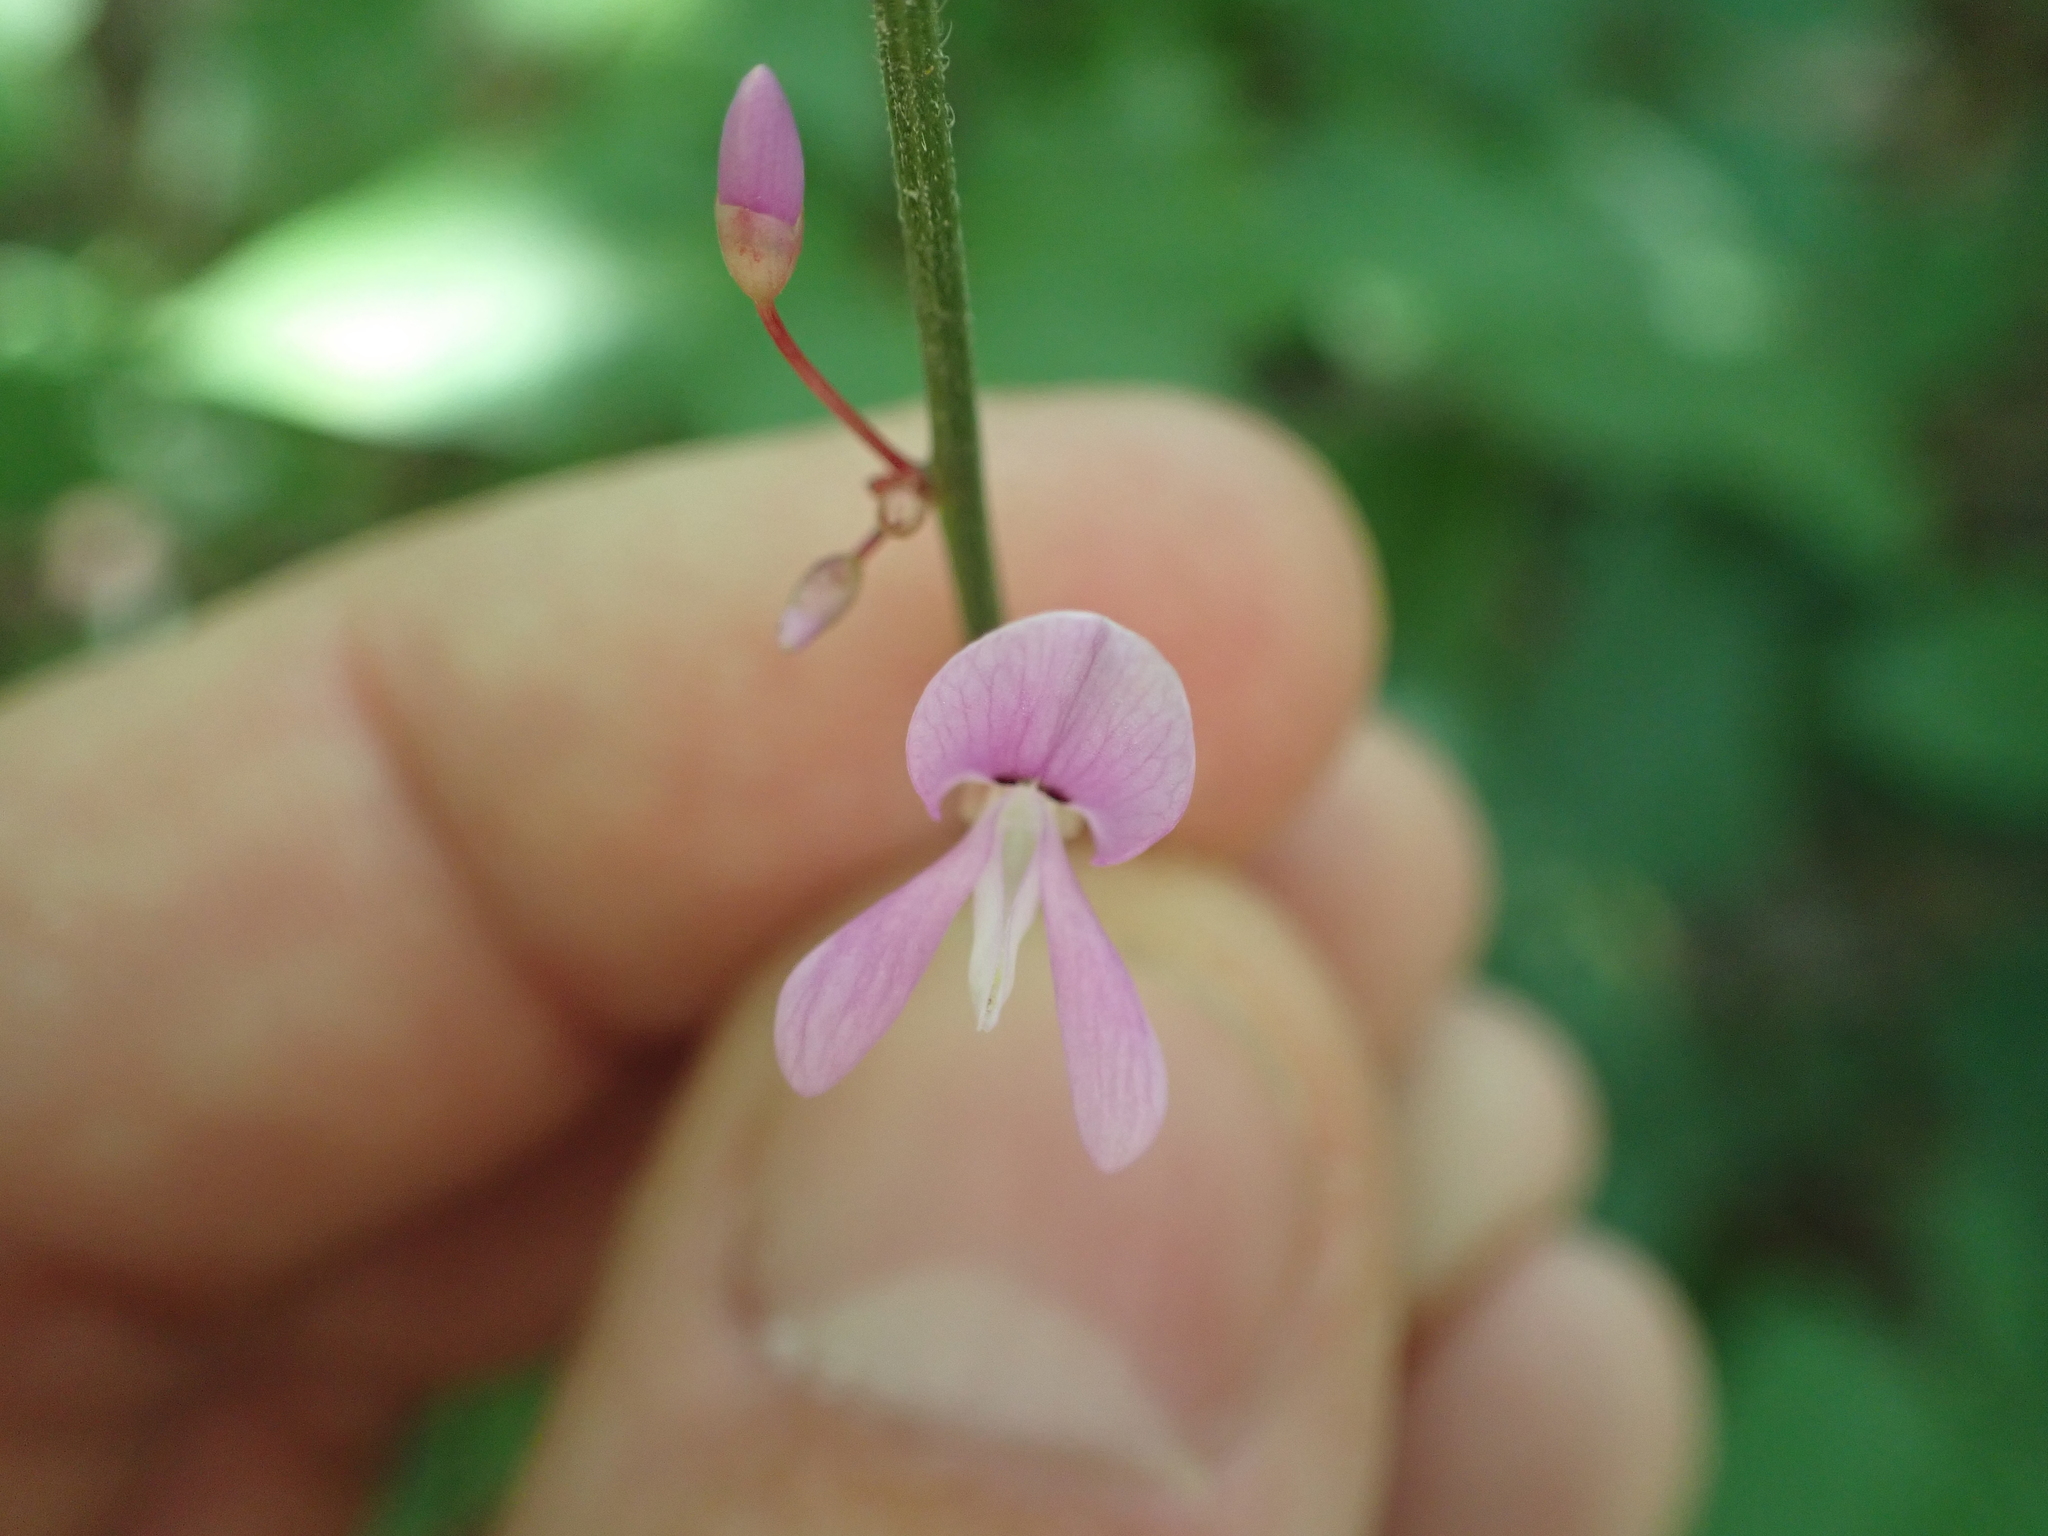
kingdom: Plantae
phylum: Tracheophyta
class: Magnoliopsida
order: Fabales
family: Fabaceae
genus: Hylodesmum
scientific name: Hylodesmum nudiflorum
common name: Bare-stemmed tick-trefoil
